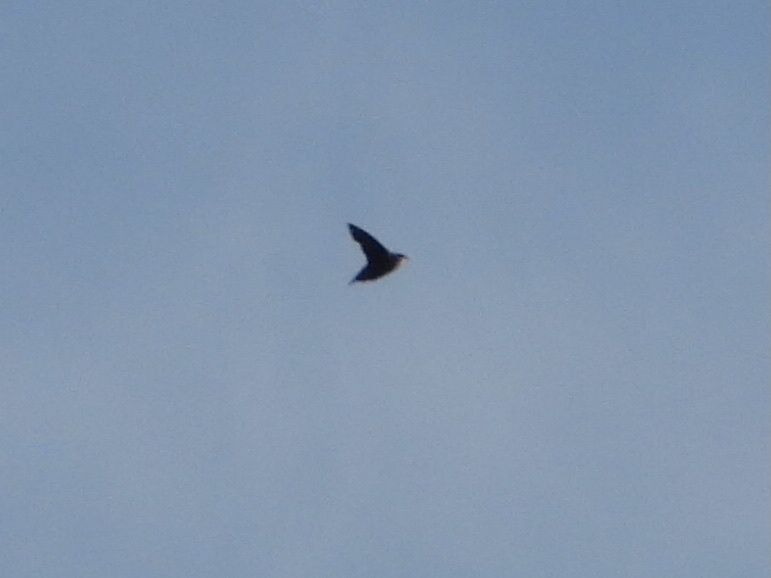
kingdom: Animalia
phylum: Chordata
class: Aves
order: Apodiformes
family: Apodidae
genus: Chaetura
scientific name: Chaetura vauxi
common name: Vaux's swift
